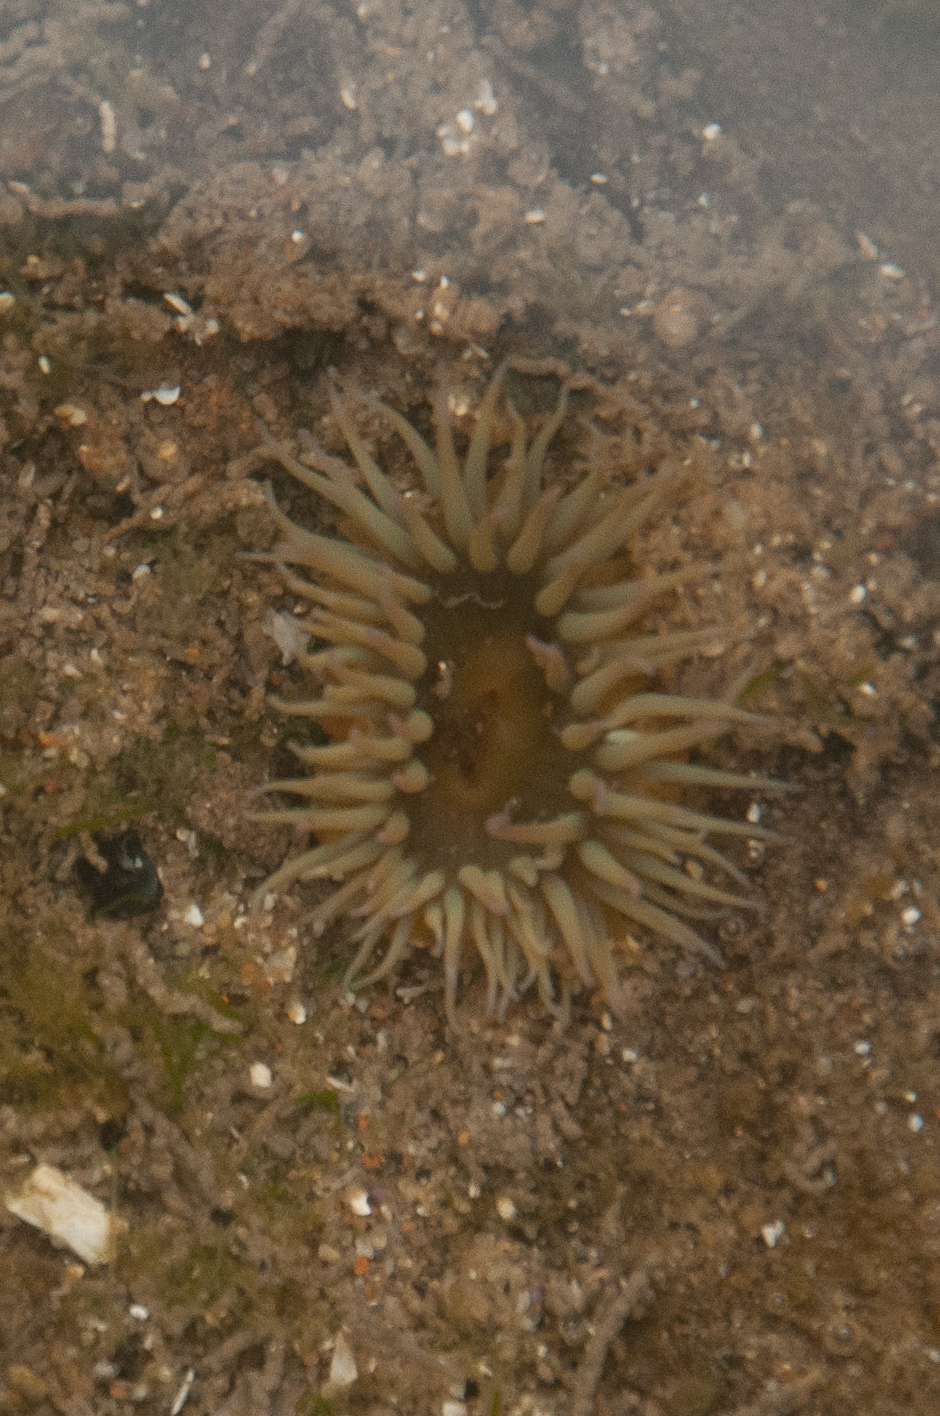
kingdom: Animalia
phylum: Cnidaria
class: Anthozoa
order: Actiniaria
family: Actiniidae
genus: Anthopleura
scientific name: Anthopleura elegantissima
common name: Clonal anemone
